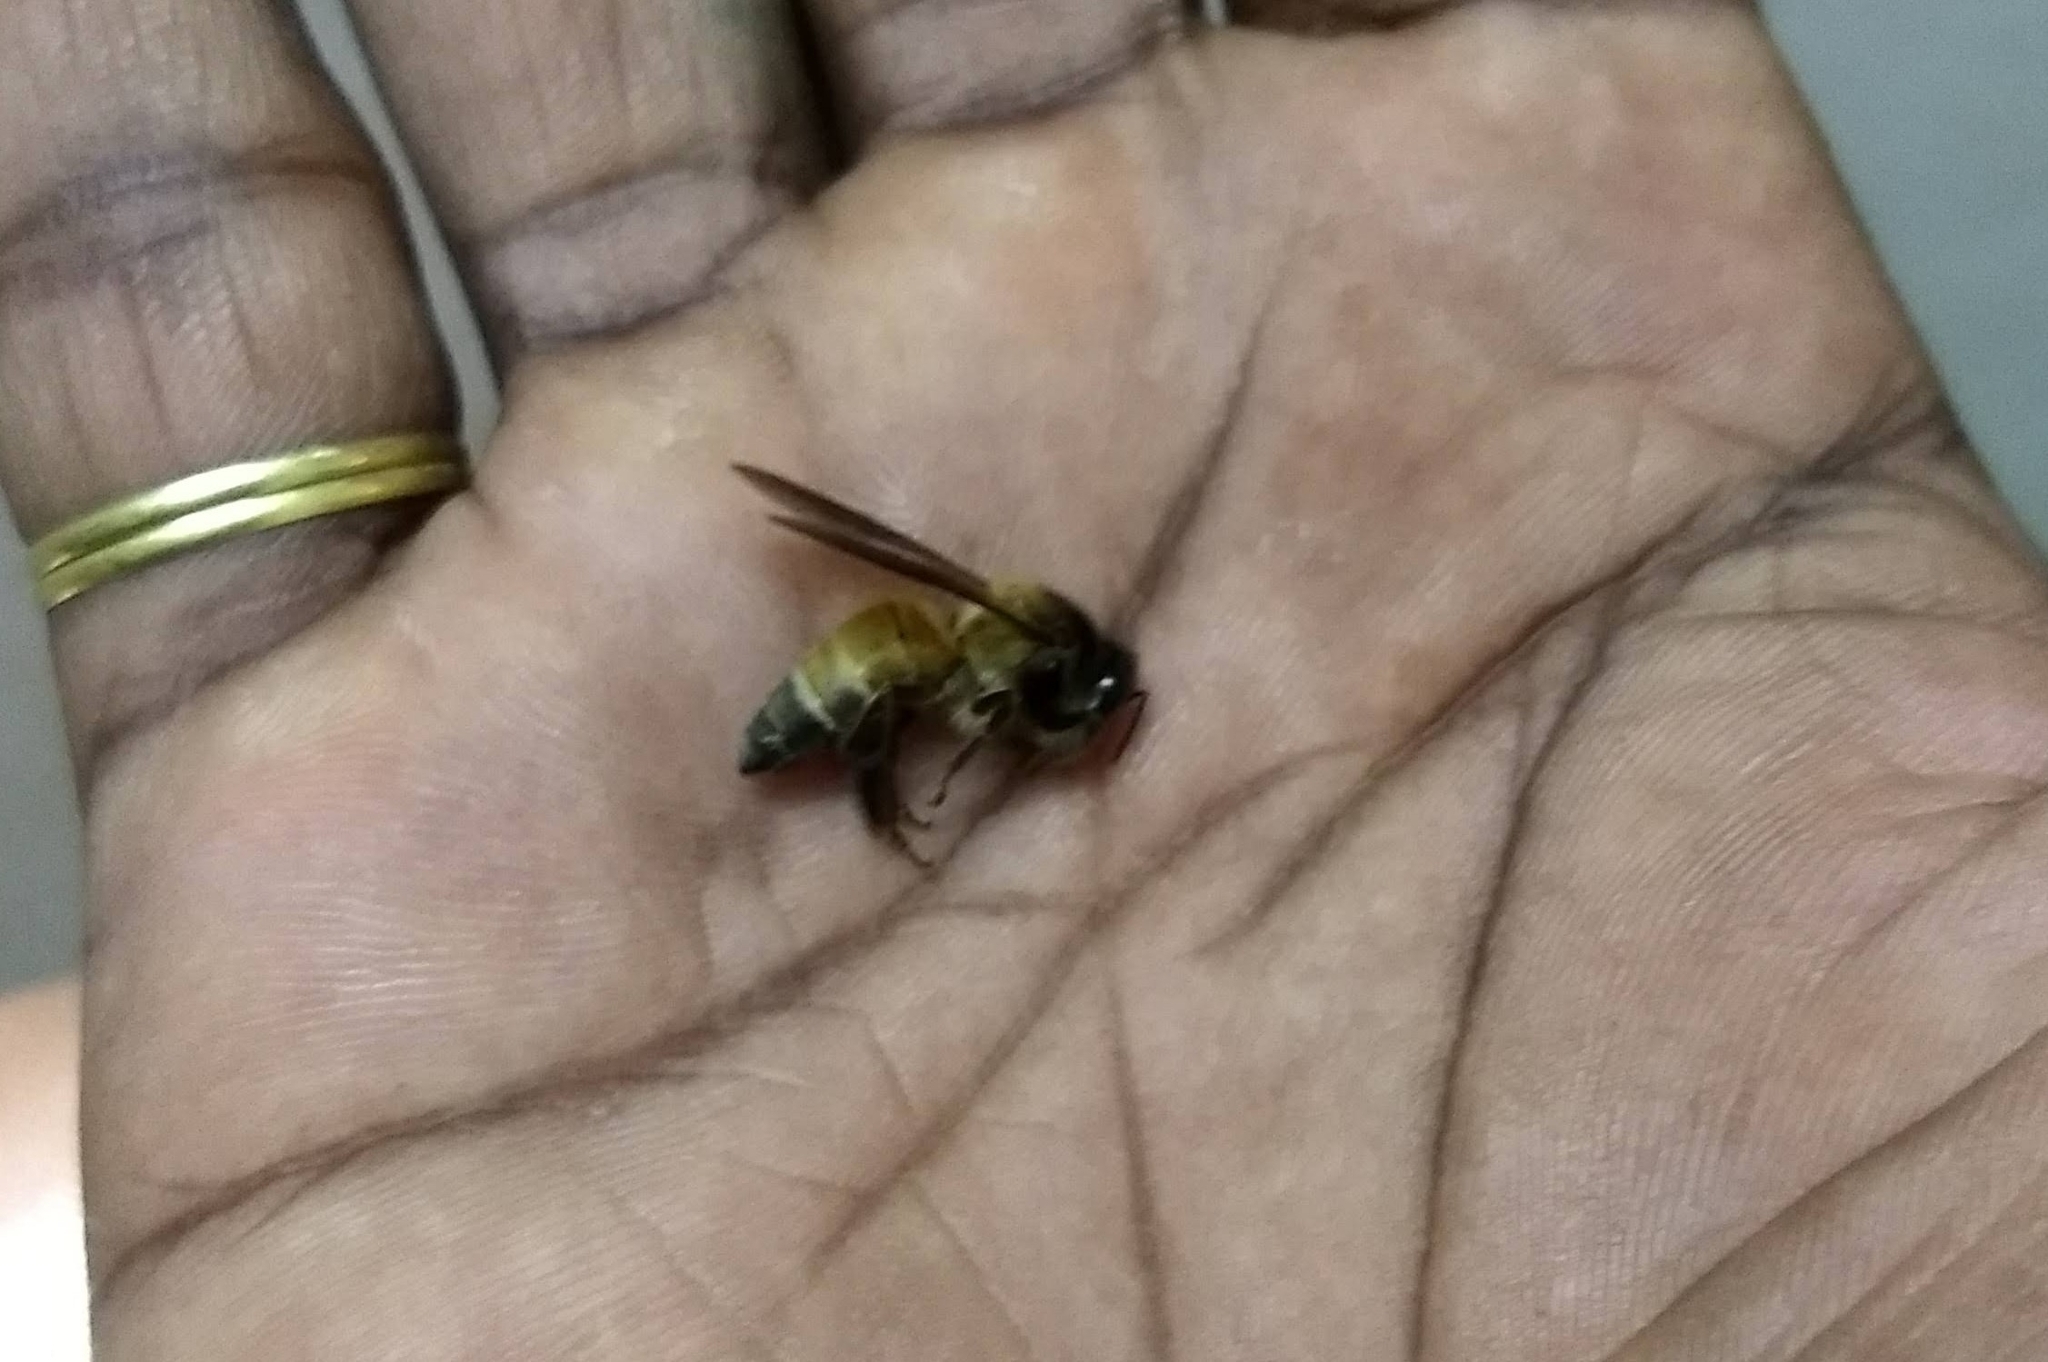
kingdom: Animalia
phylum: Arthropoda
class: Insecta
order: Hymenoptera
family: Apidae
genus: Apis
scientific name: Apis dorsata
